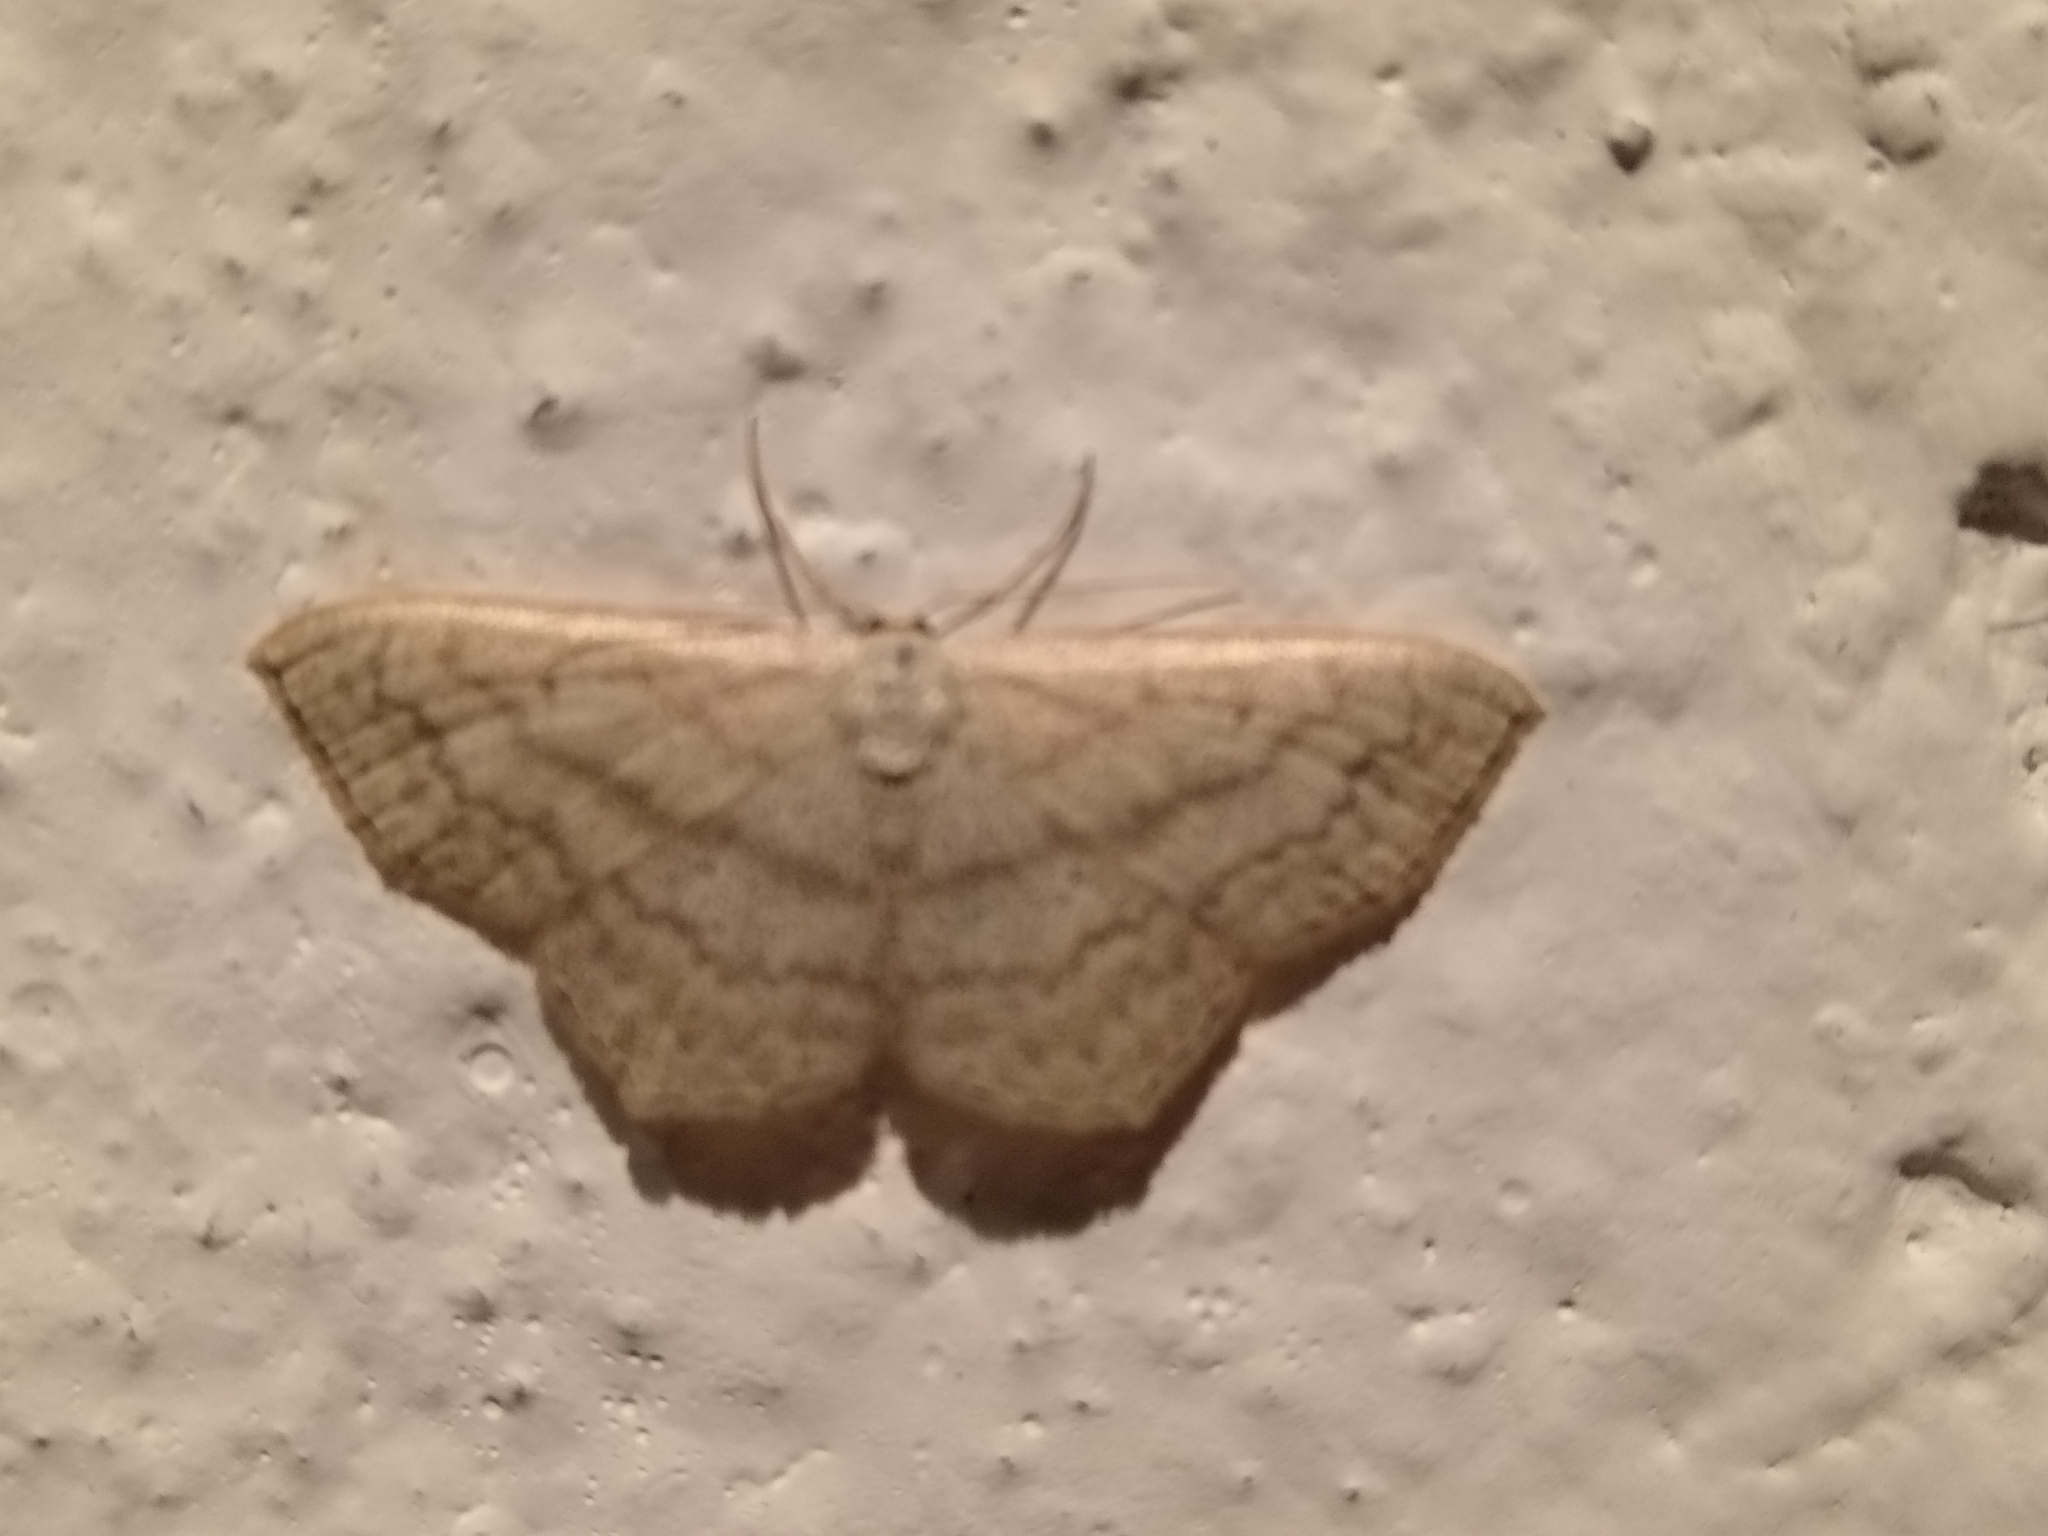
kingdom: Animalia
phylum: Arthropoda
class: Insecta
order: Lepidoptera
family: Geometridae
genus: Scopula
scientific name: Scopula nigropunctata
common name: Sub-angled wave
